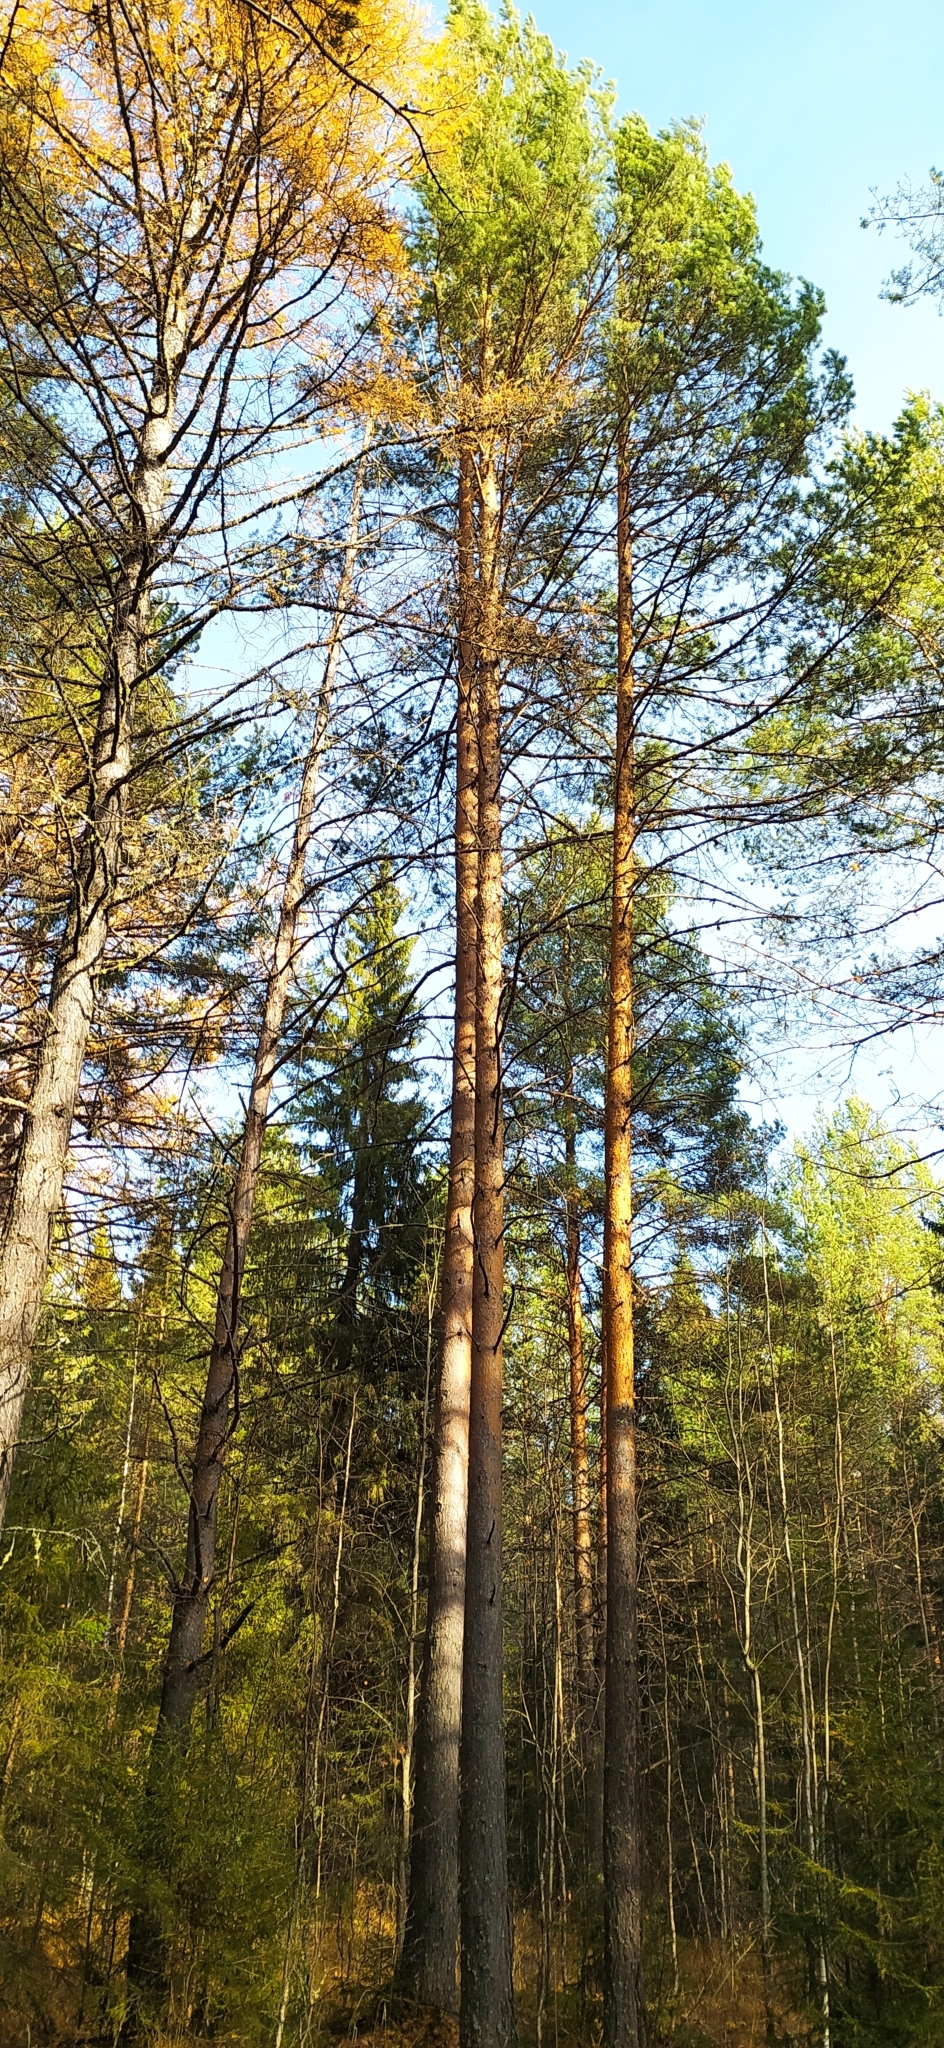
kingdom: Plantae
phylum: Tracheophyta
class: Pinopsida
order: Pinales
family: Pinaceae
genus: Pinus
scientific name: Pinus sylvestris
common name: Scots pine
